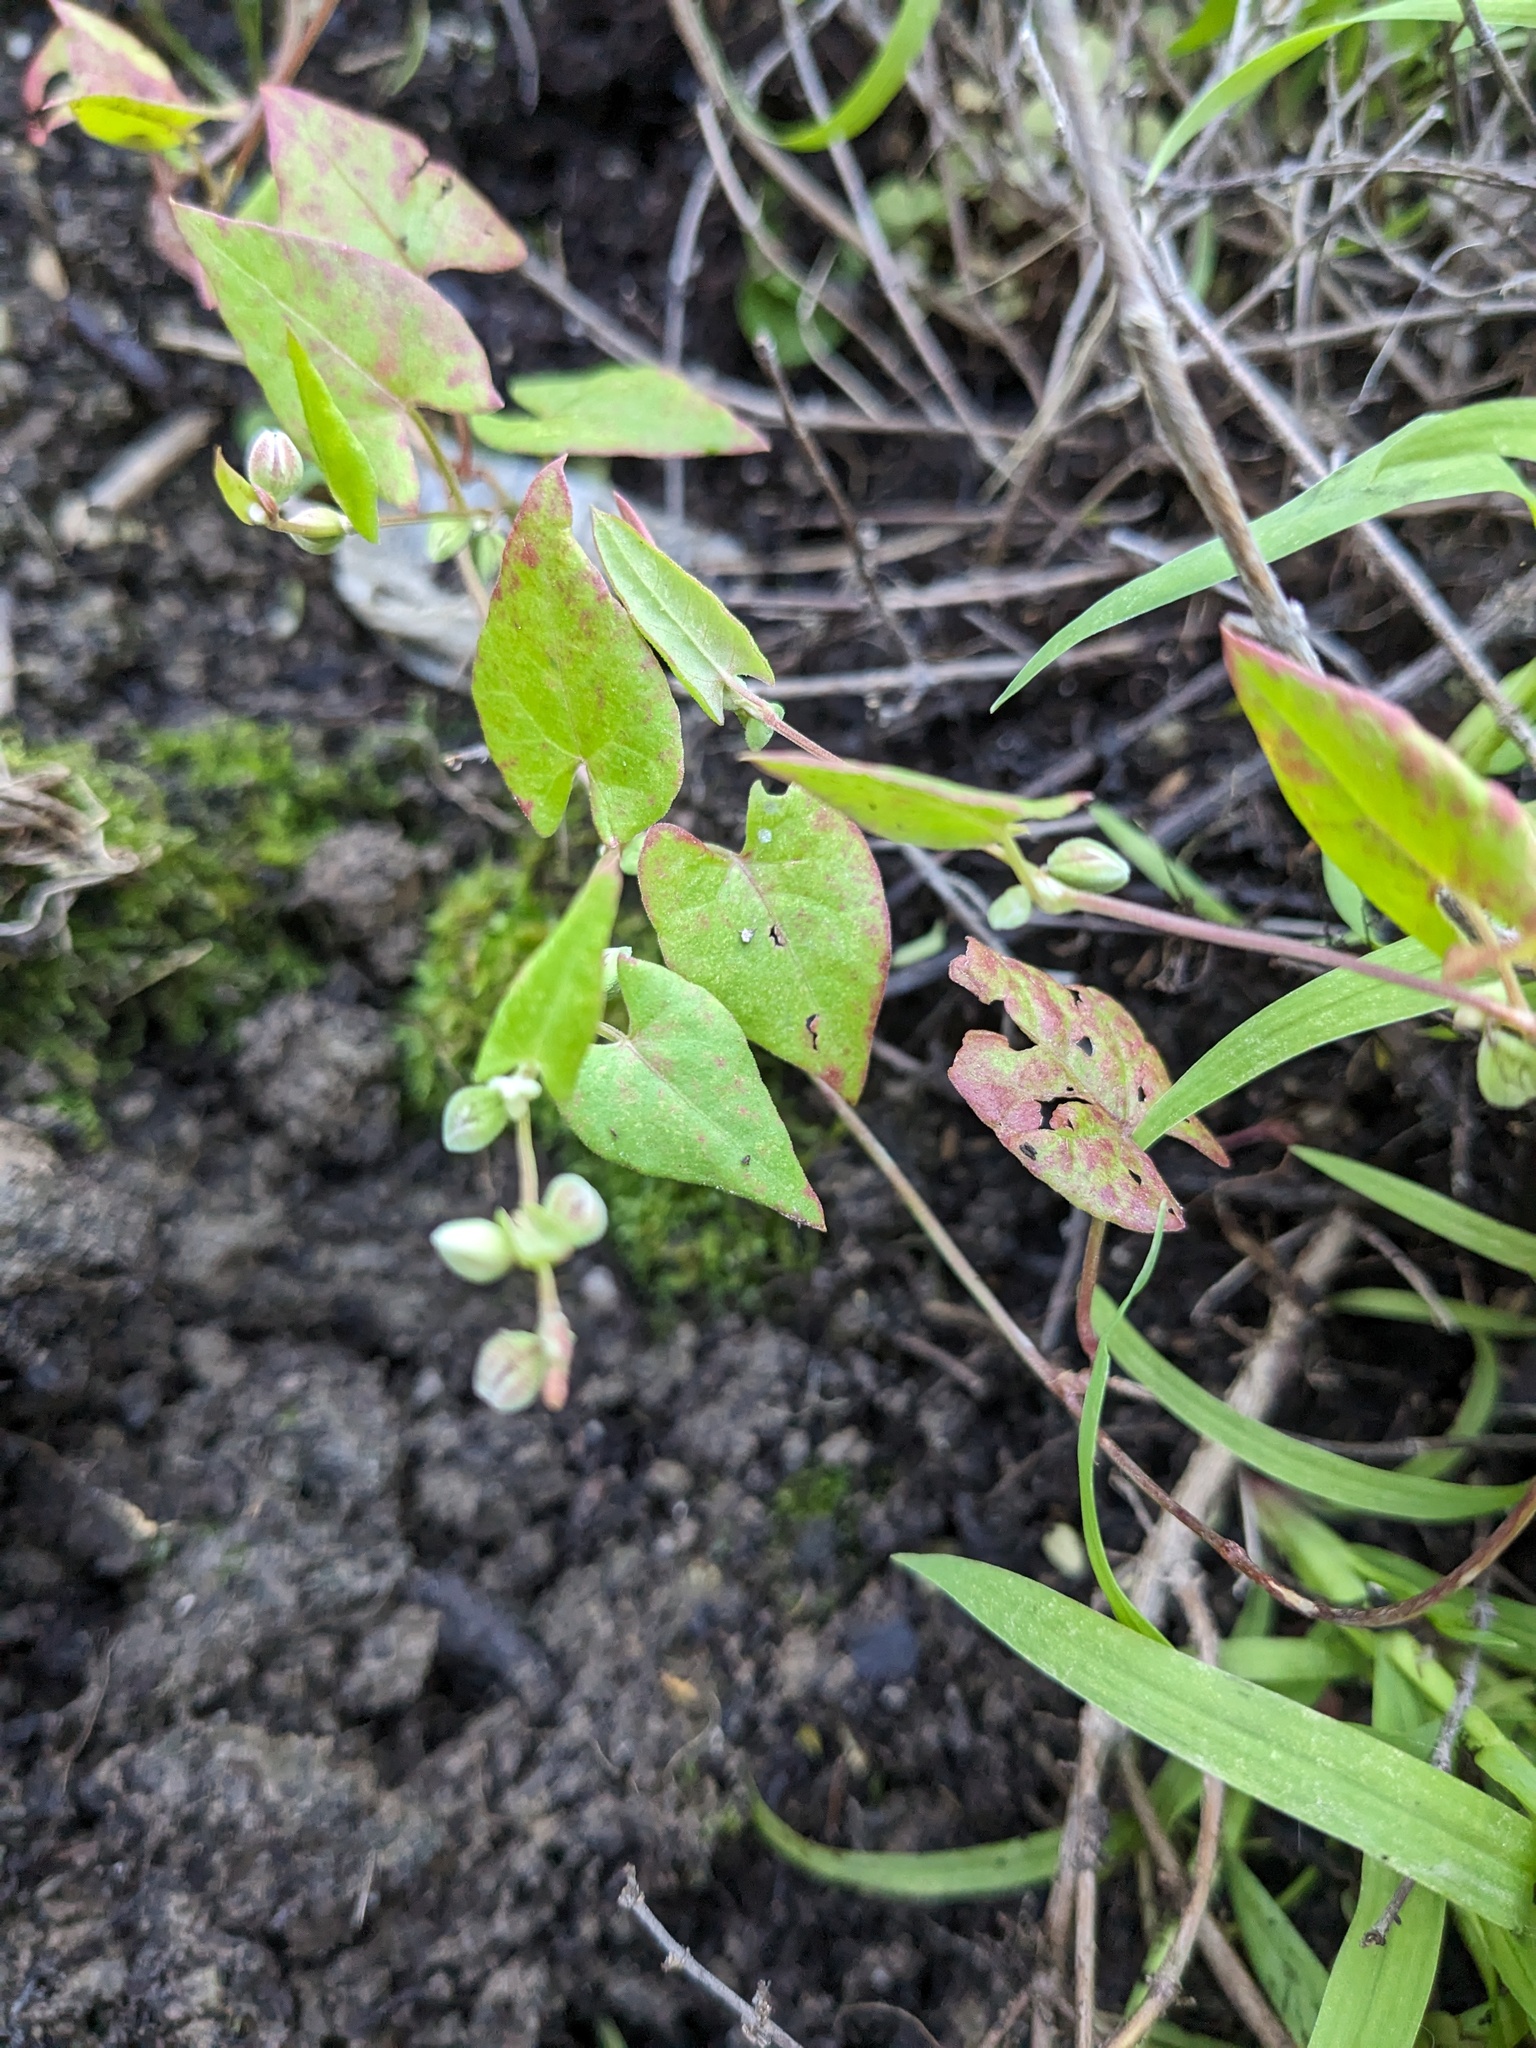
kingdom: Plantae
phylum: Tracheophyta
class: Magnoliopsida
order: Caryophyllales
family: Polygonaceae
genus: Fallopia
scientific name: Fallopia convolvulus
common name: Black bindweed
